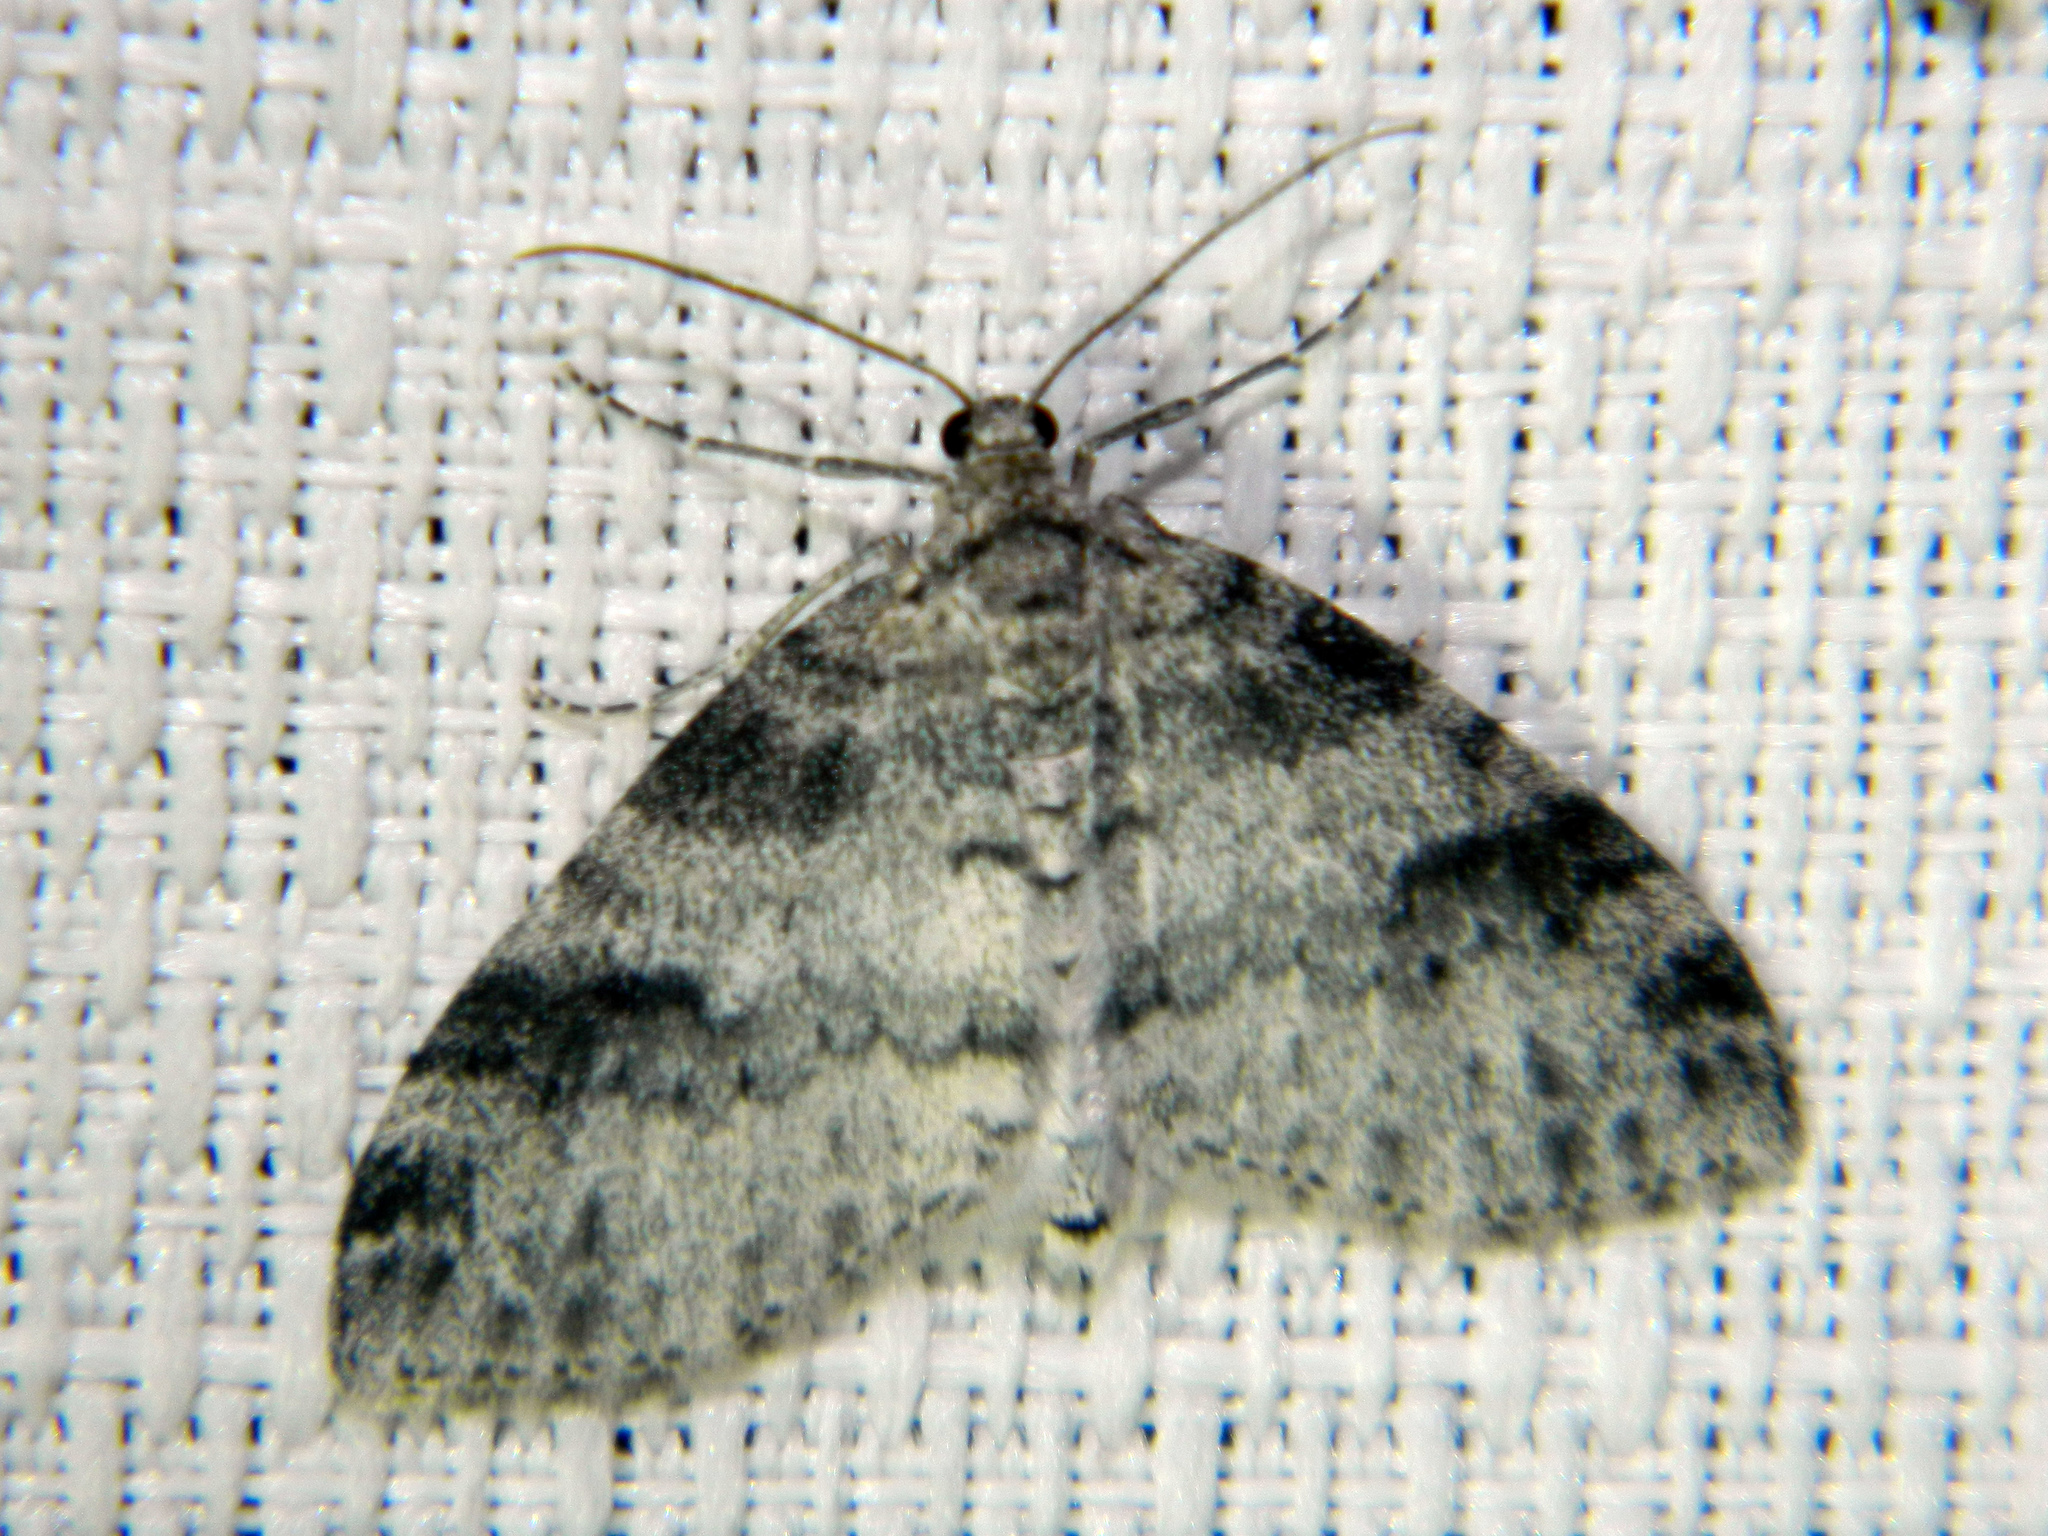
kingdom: Animalia
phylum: Arthropoda
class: Insecta
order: Lepidoptera
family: Geometridae
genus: Lobophora
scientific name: Lobophora nivigerata
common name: Powdered bigwing
